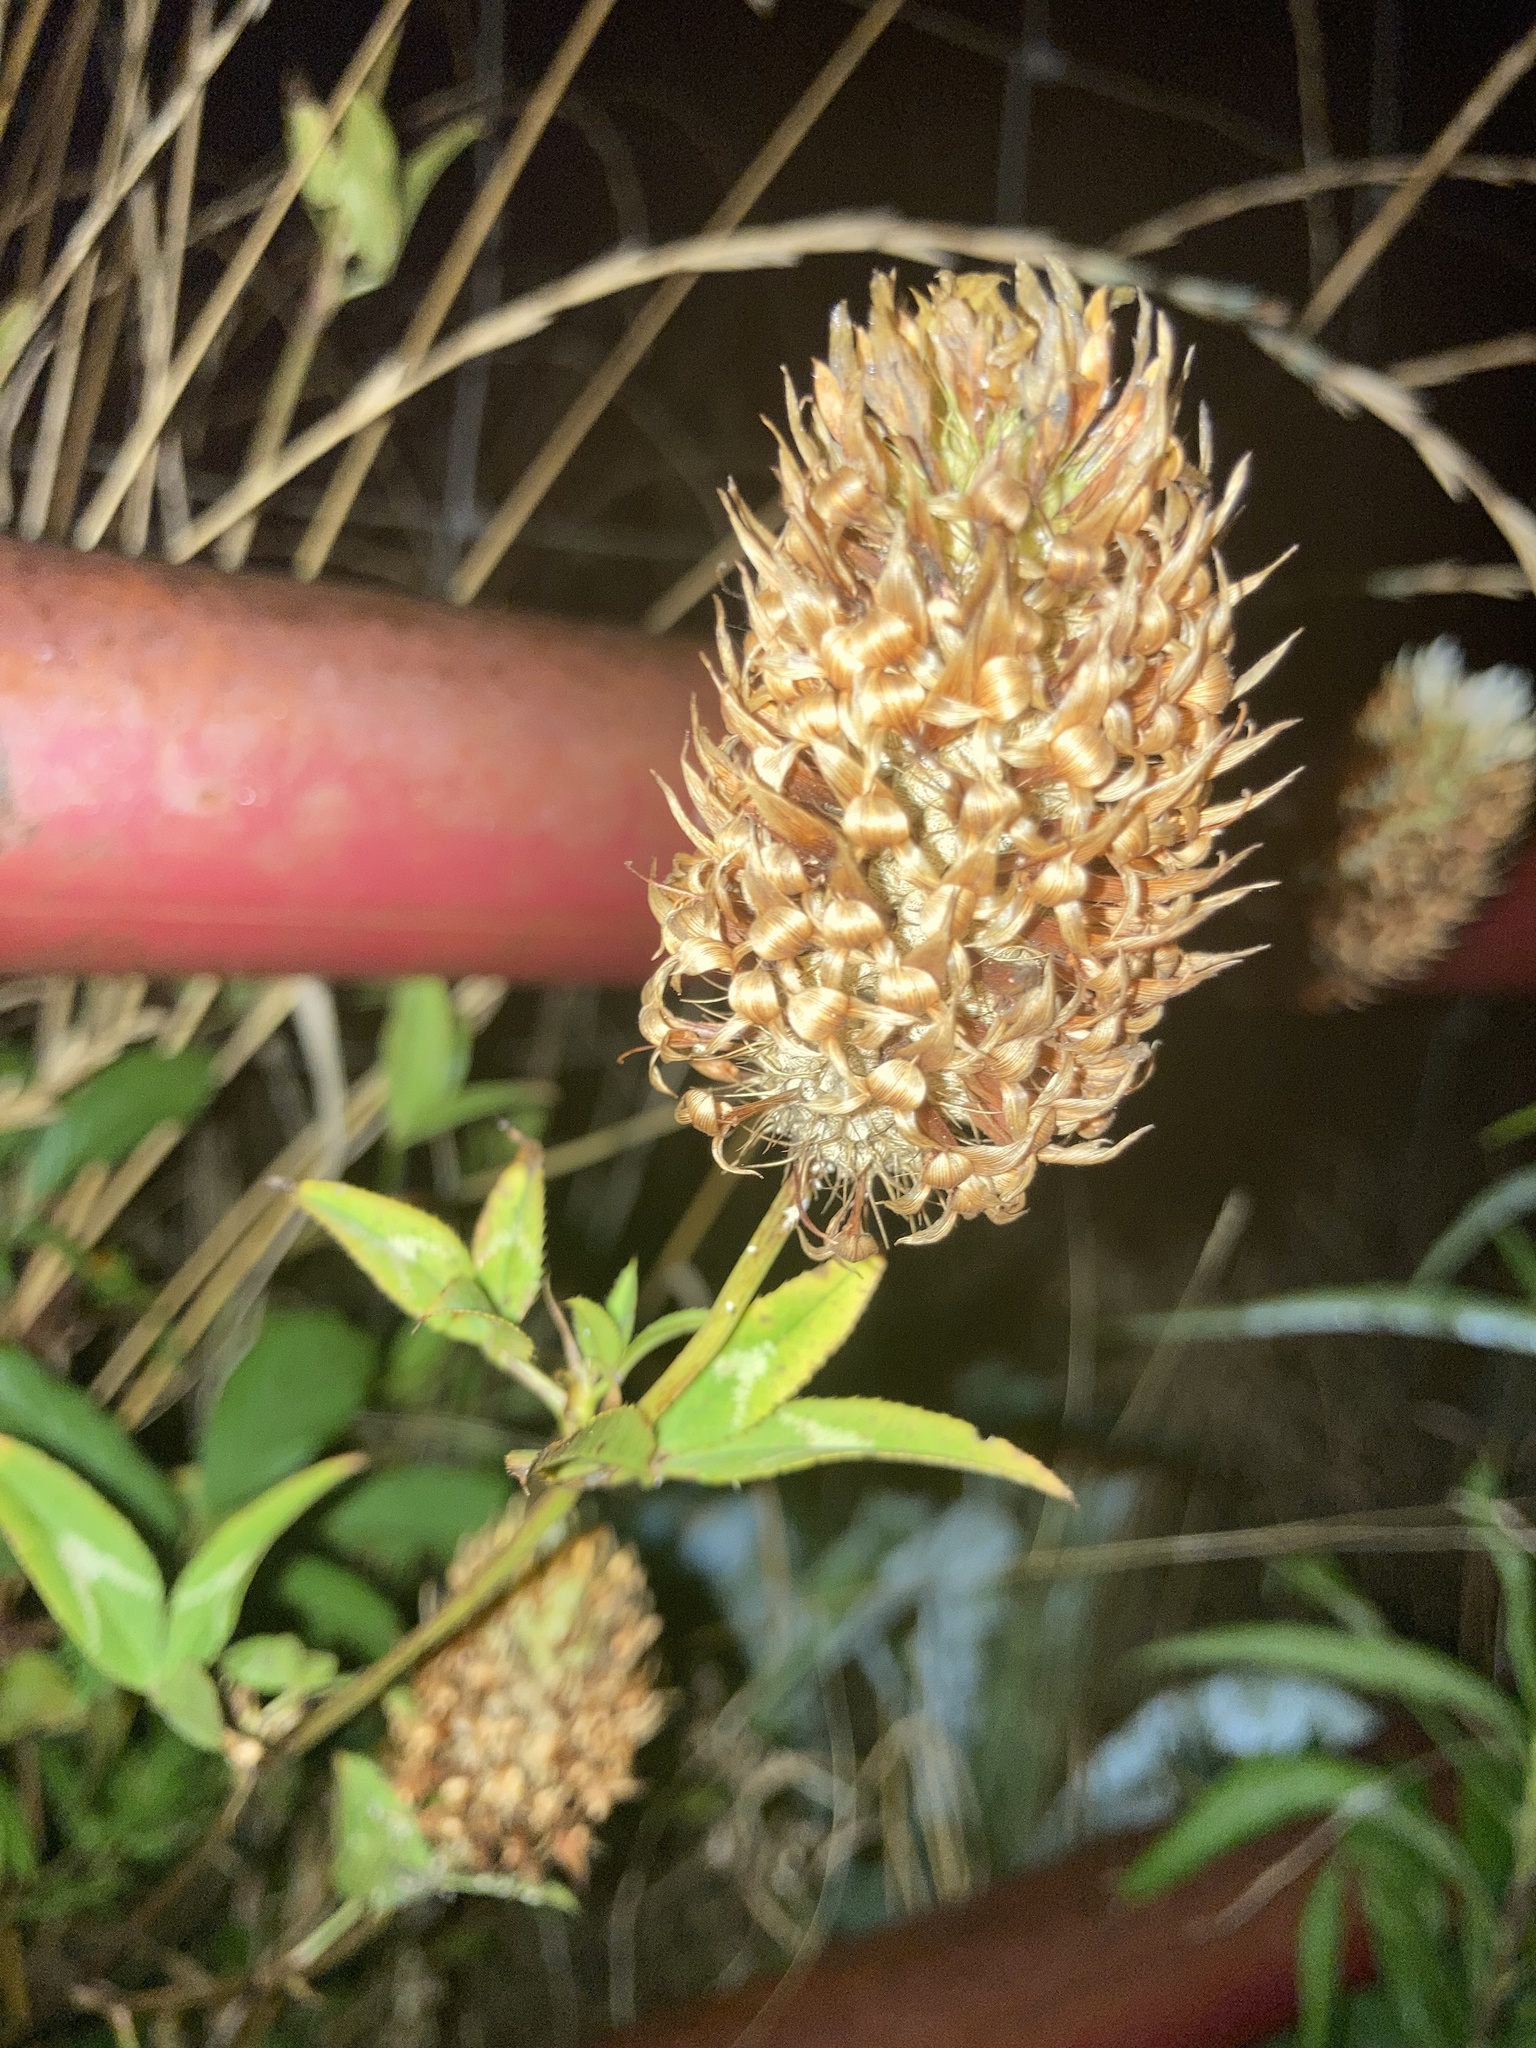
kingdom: Plantae
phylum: Tracheophyta
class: Magnoliopsida
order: Fabales
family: Fabaceae
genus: Trifolium
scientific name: Trifolium vesiculosum
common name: Arrowleaf clover
